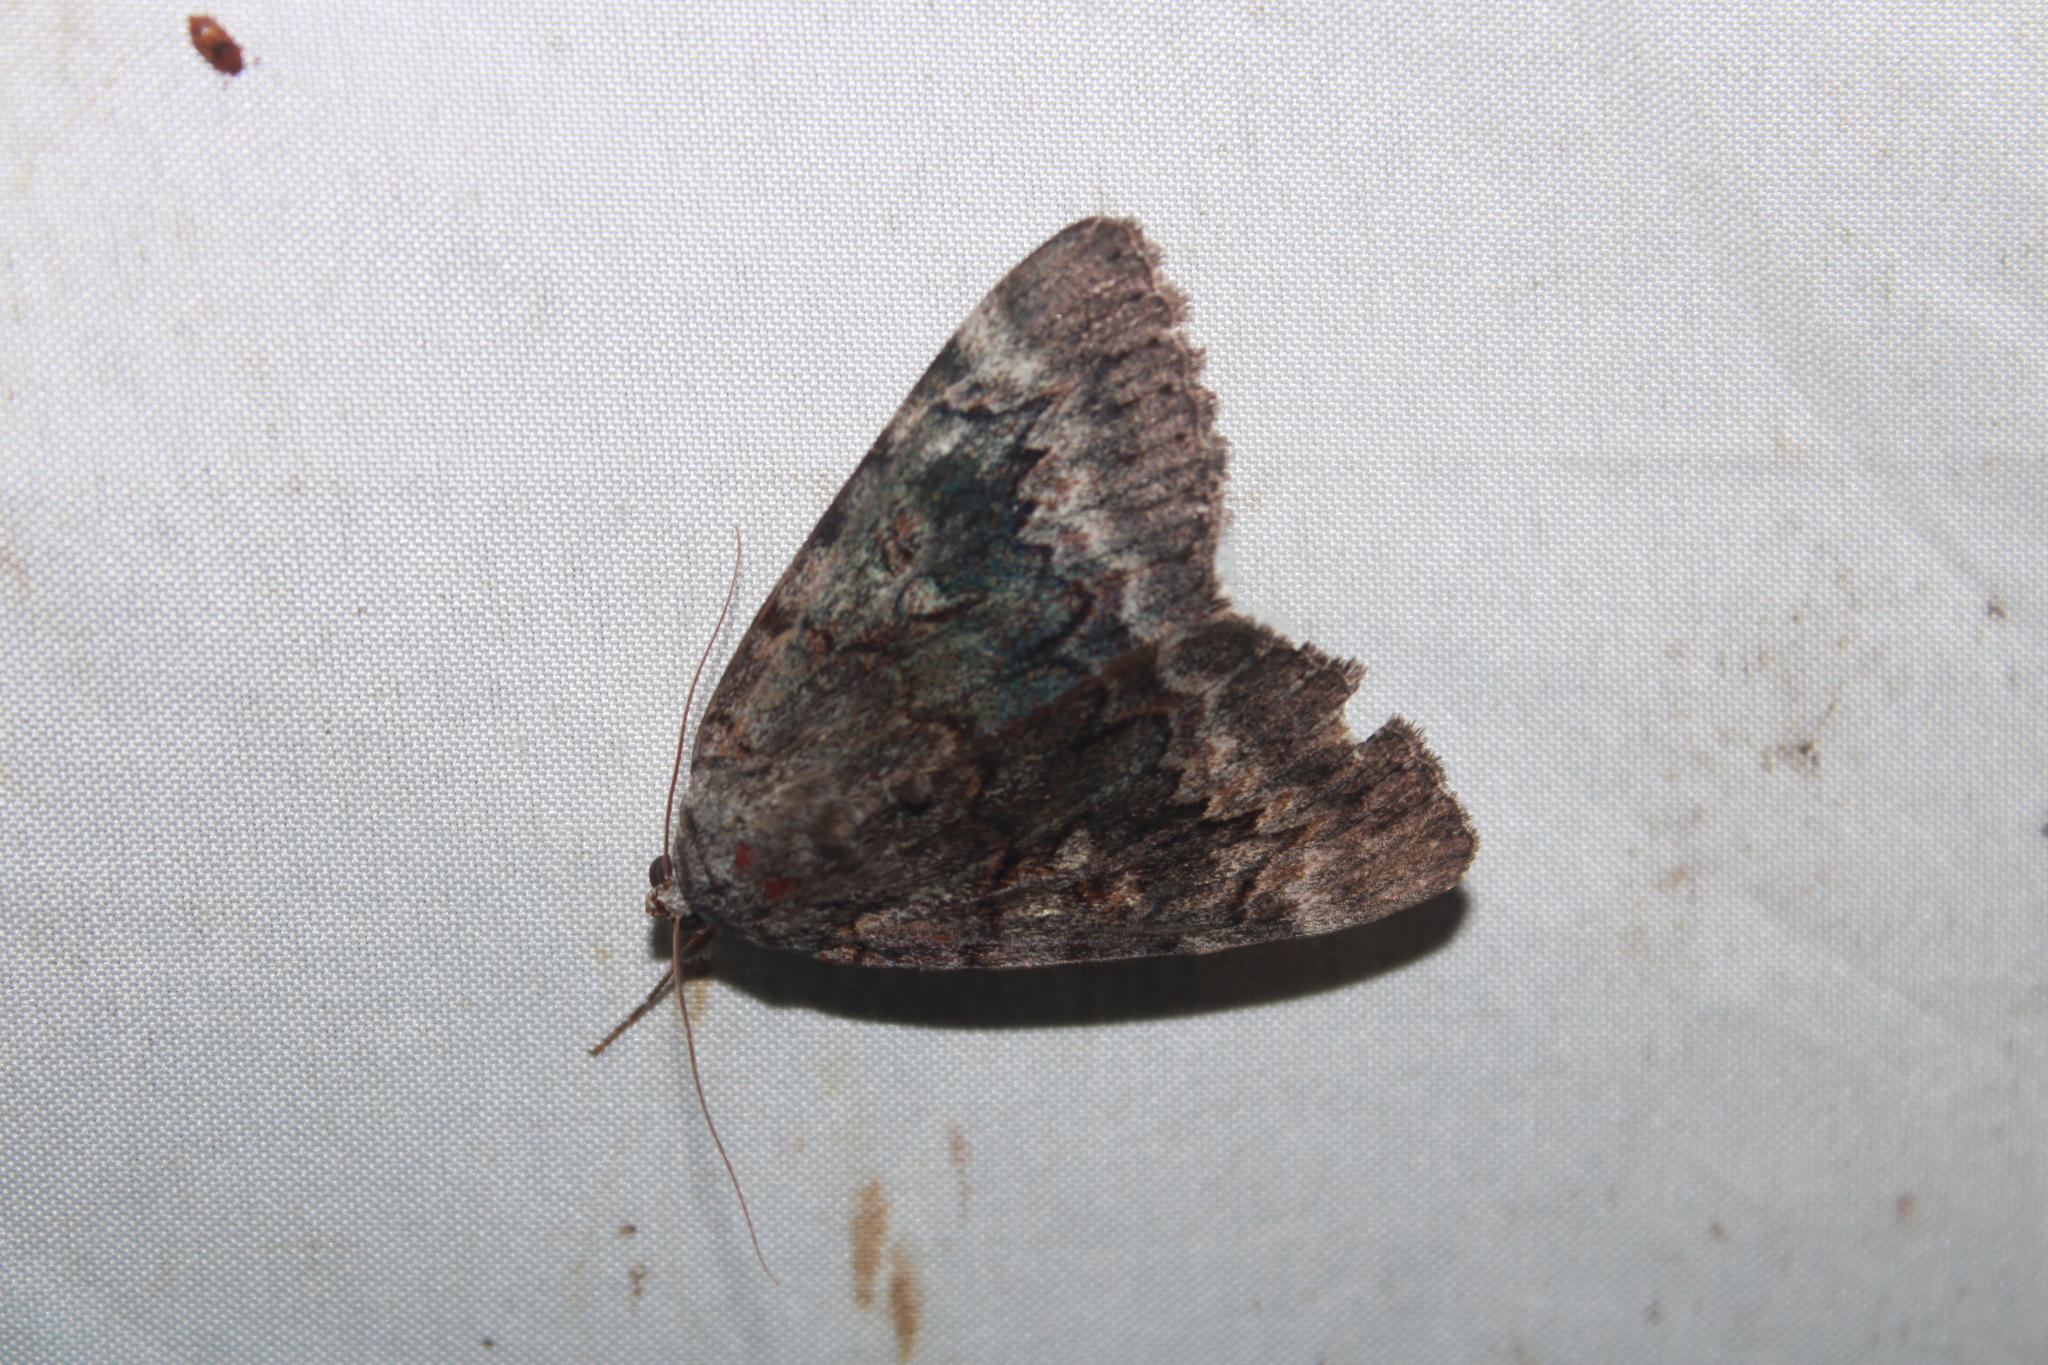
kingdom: Animalia
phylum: Arthropoda
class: Insecta
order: Lepidoptera
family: Erebidae
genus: Catocala
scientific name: Catocala epione
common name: Epione underwing
